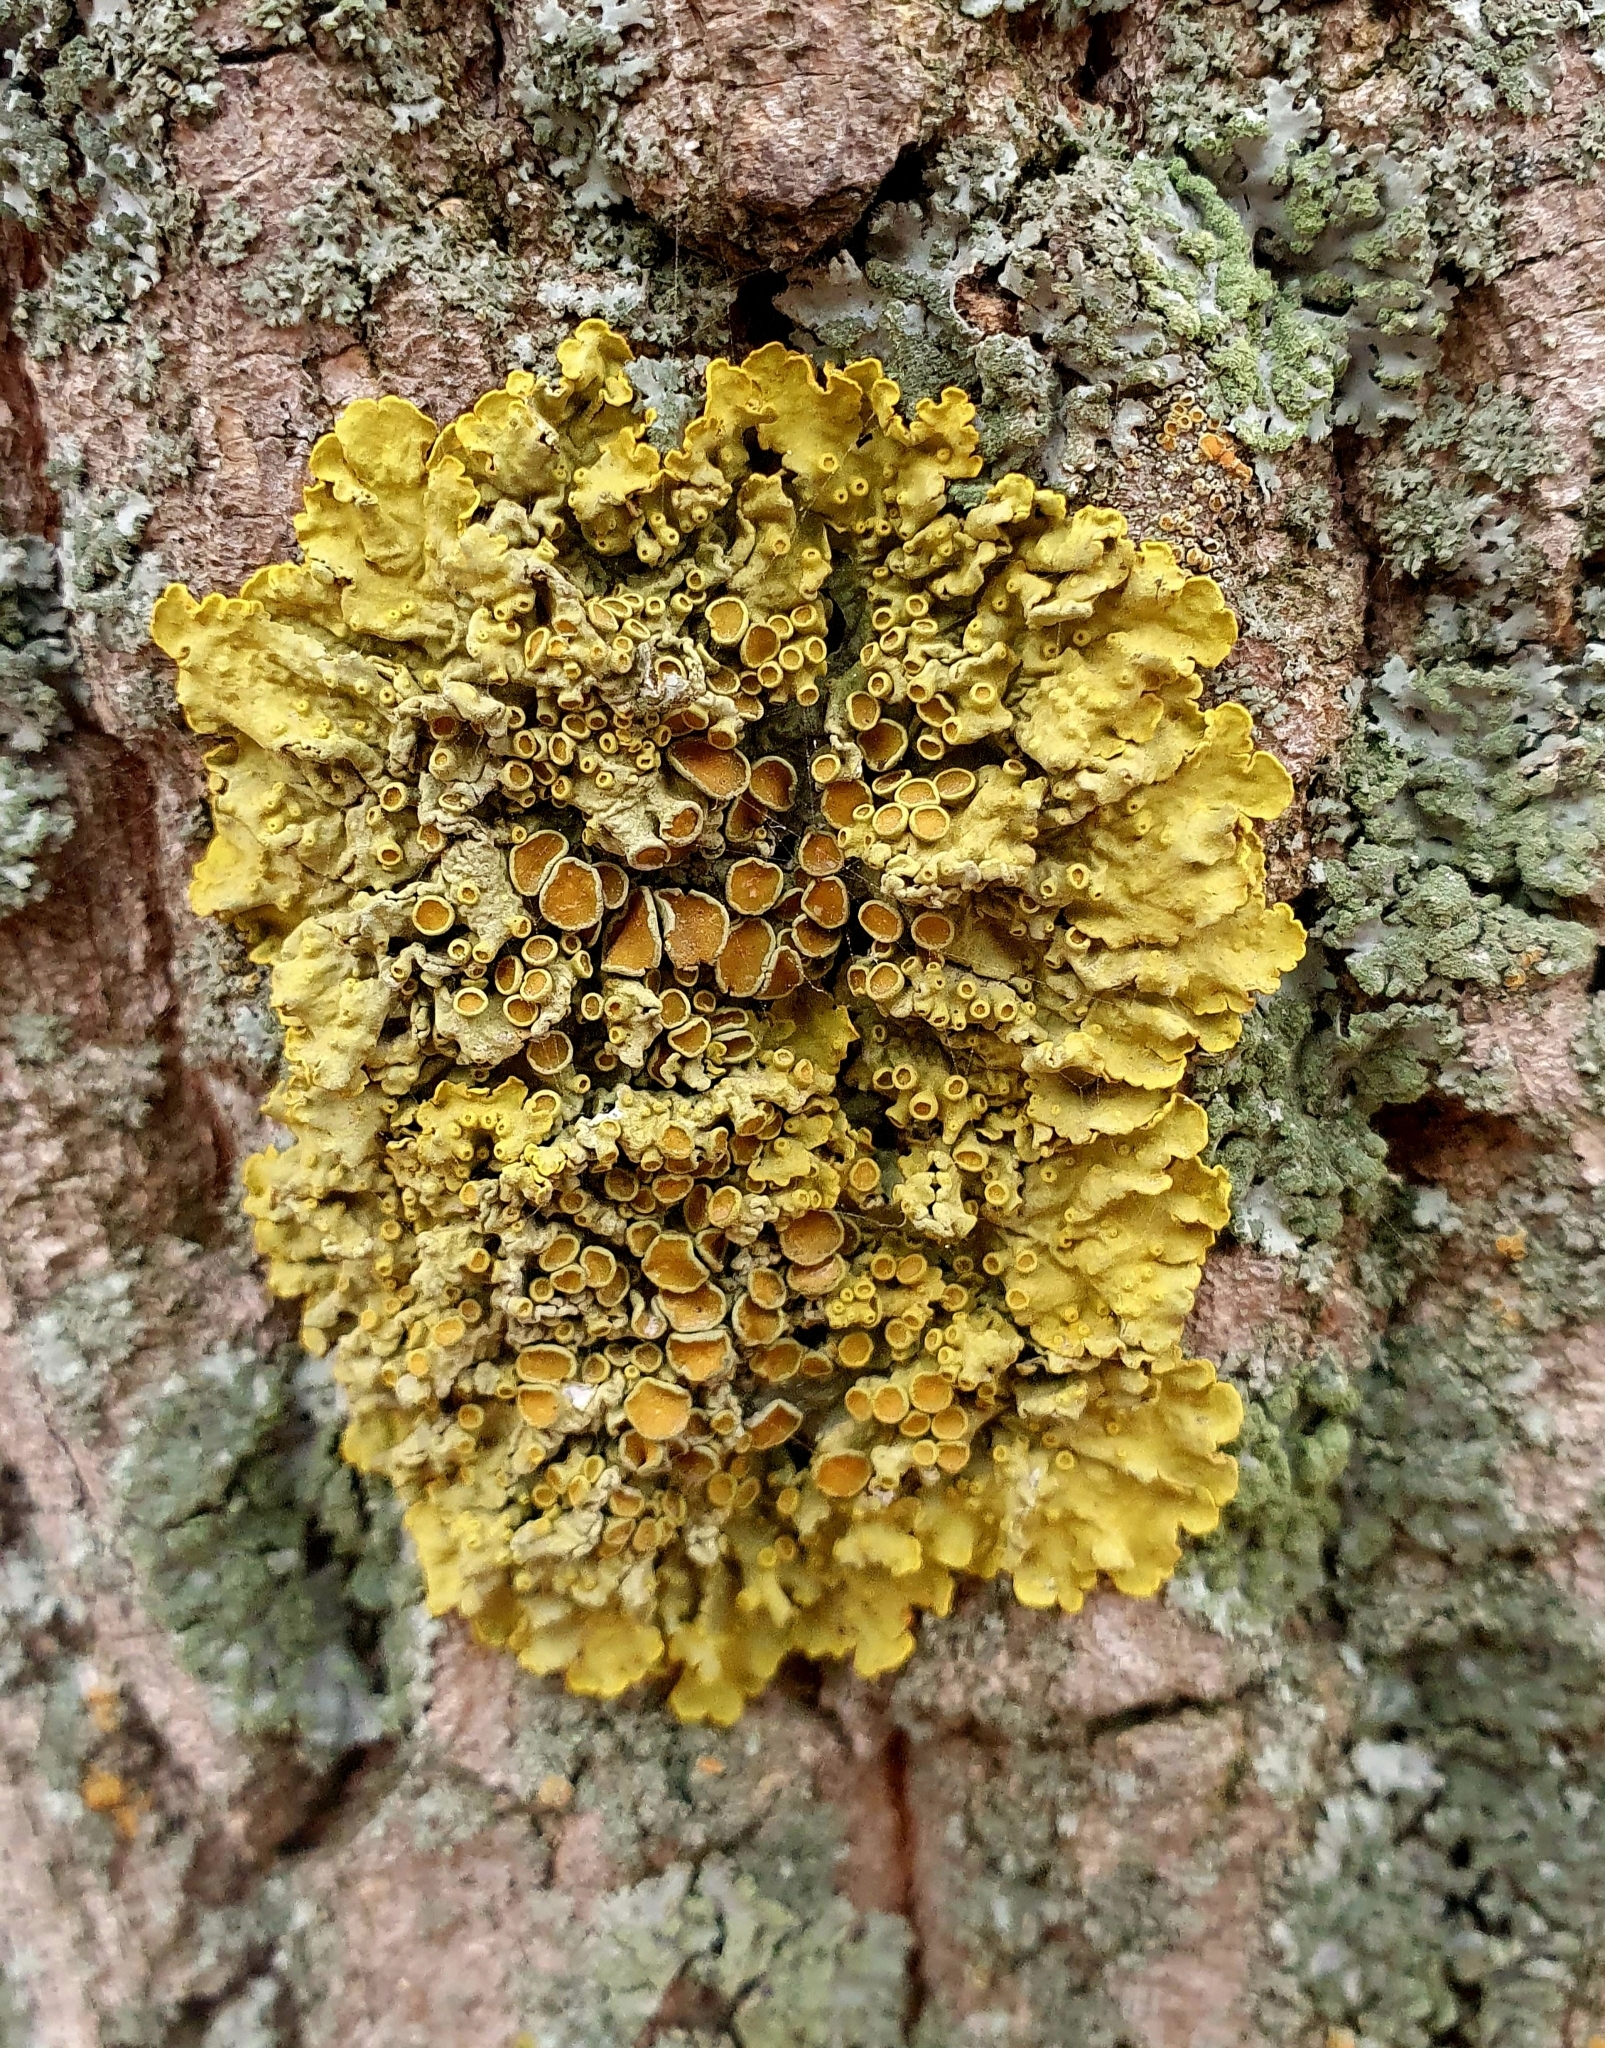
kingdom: Fungi
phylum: Ascomycota
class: Lecanoromycetes
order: Teloschistales
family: Teloschistaceae
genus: Xanthoria
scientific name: Xanthoria parietina
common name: Common orange lichen
